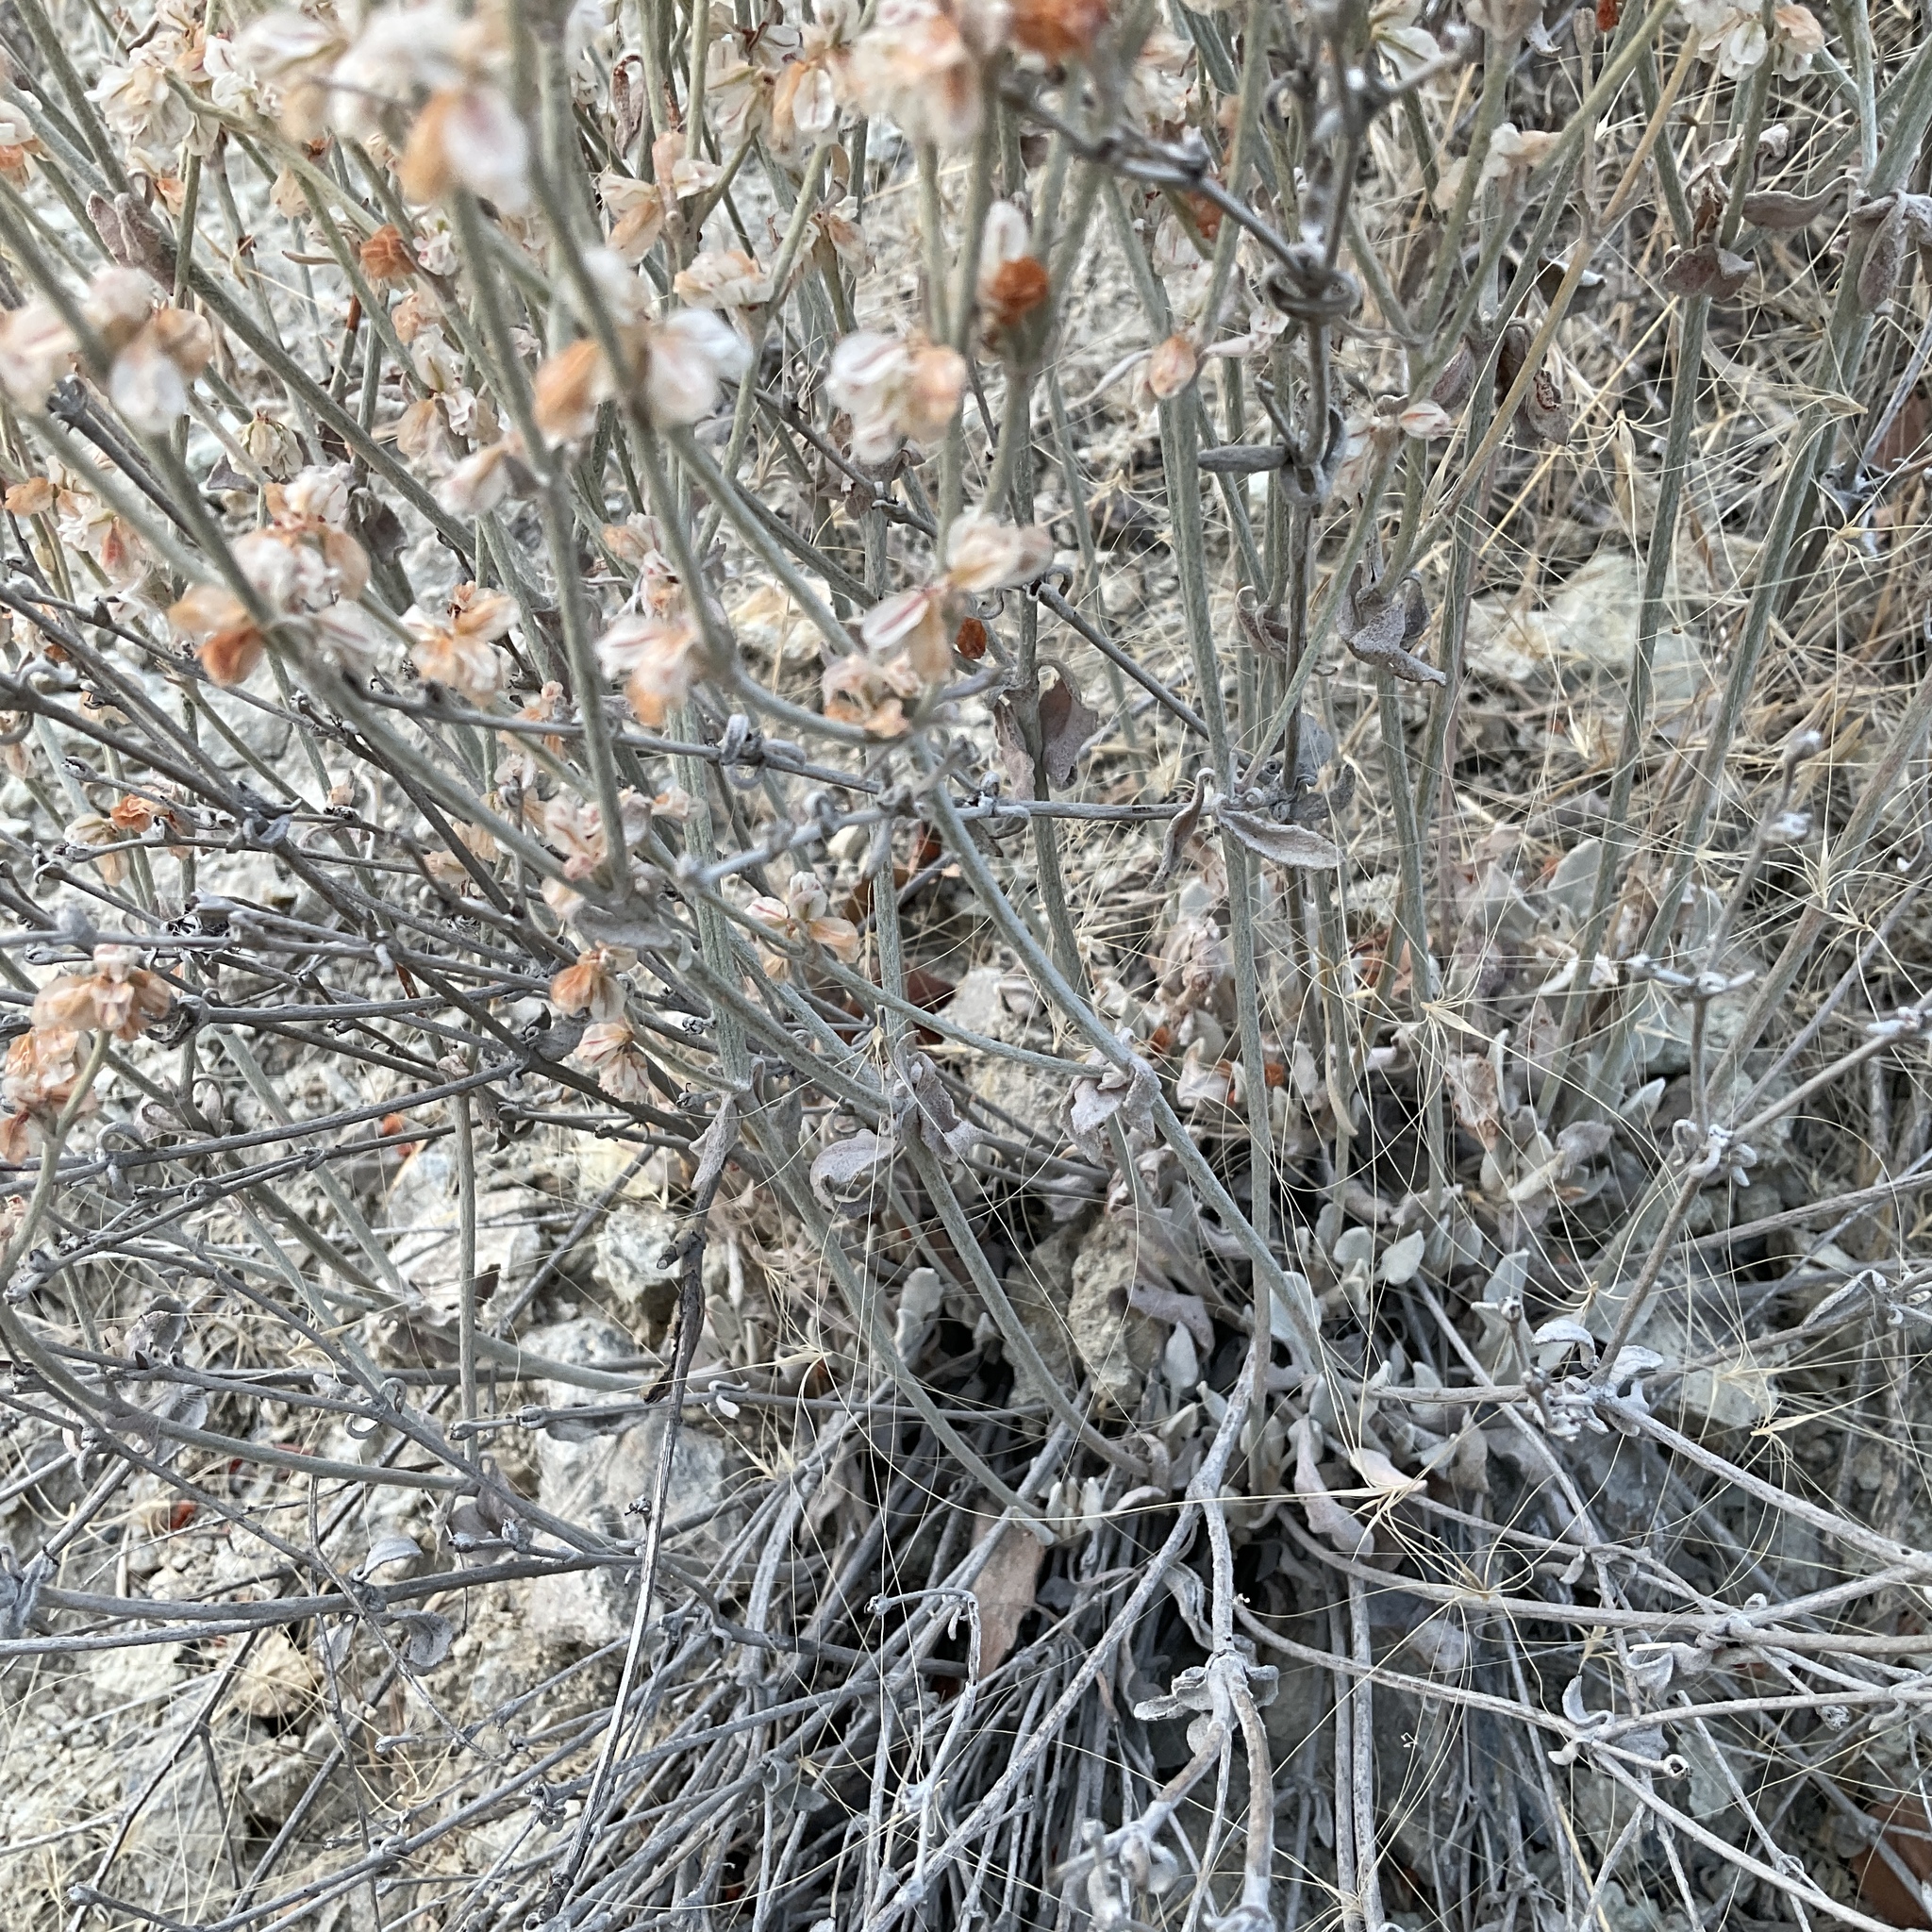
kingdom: Plantae
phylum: Tracheophyta
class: Magnoliopsida
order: Caryophyllales
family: Polygonaceae
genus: Eriogonum
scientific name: Eriogonum niveum
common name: Snow wild buckwheat
